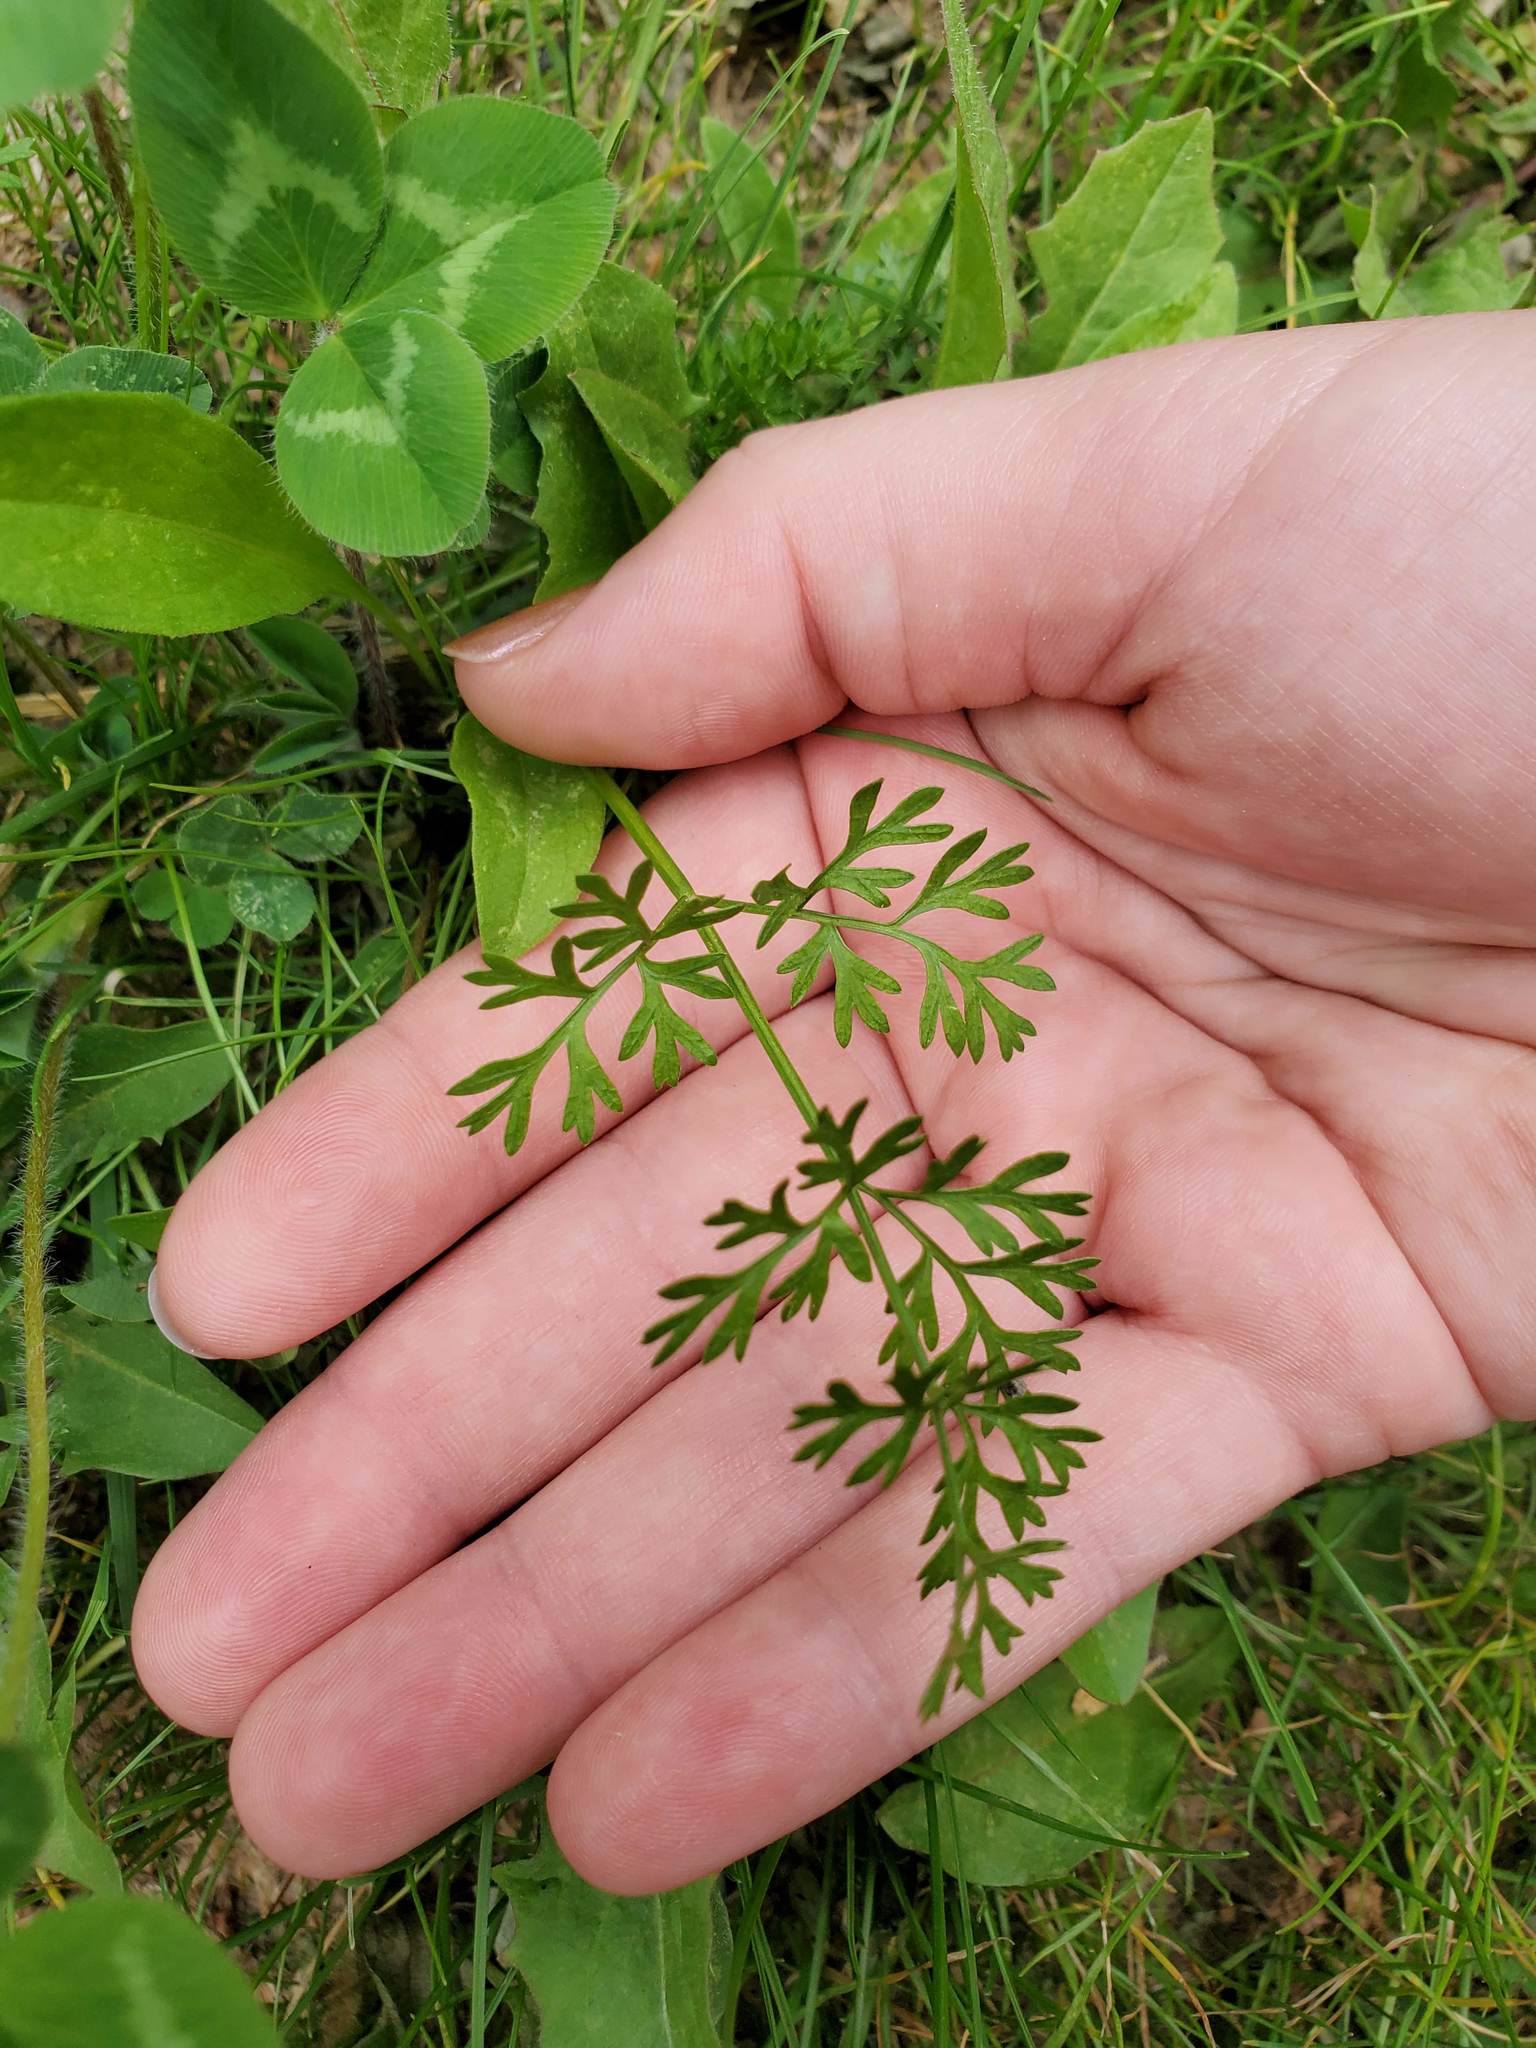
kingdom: Plantae
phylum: Tracheophyta
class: Magnoliopsida
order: Apiales
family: Apiaceae
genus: Daucus
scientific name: Daucus carota
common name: Wild carrot
